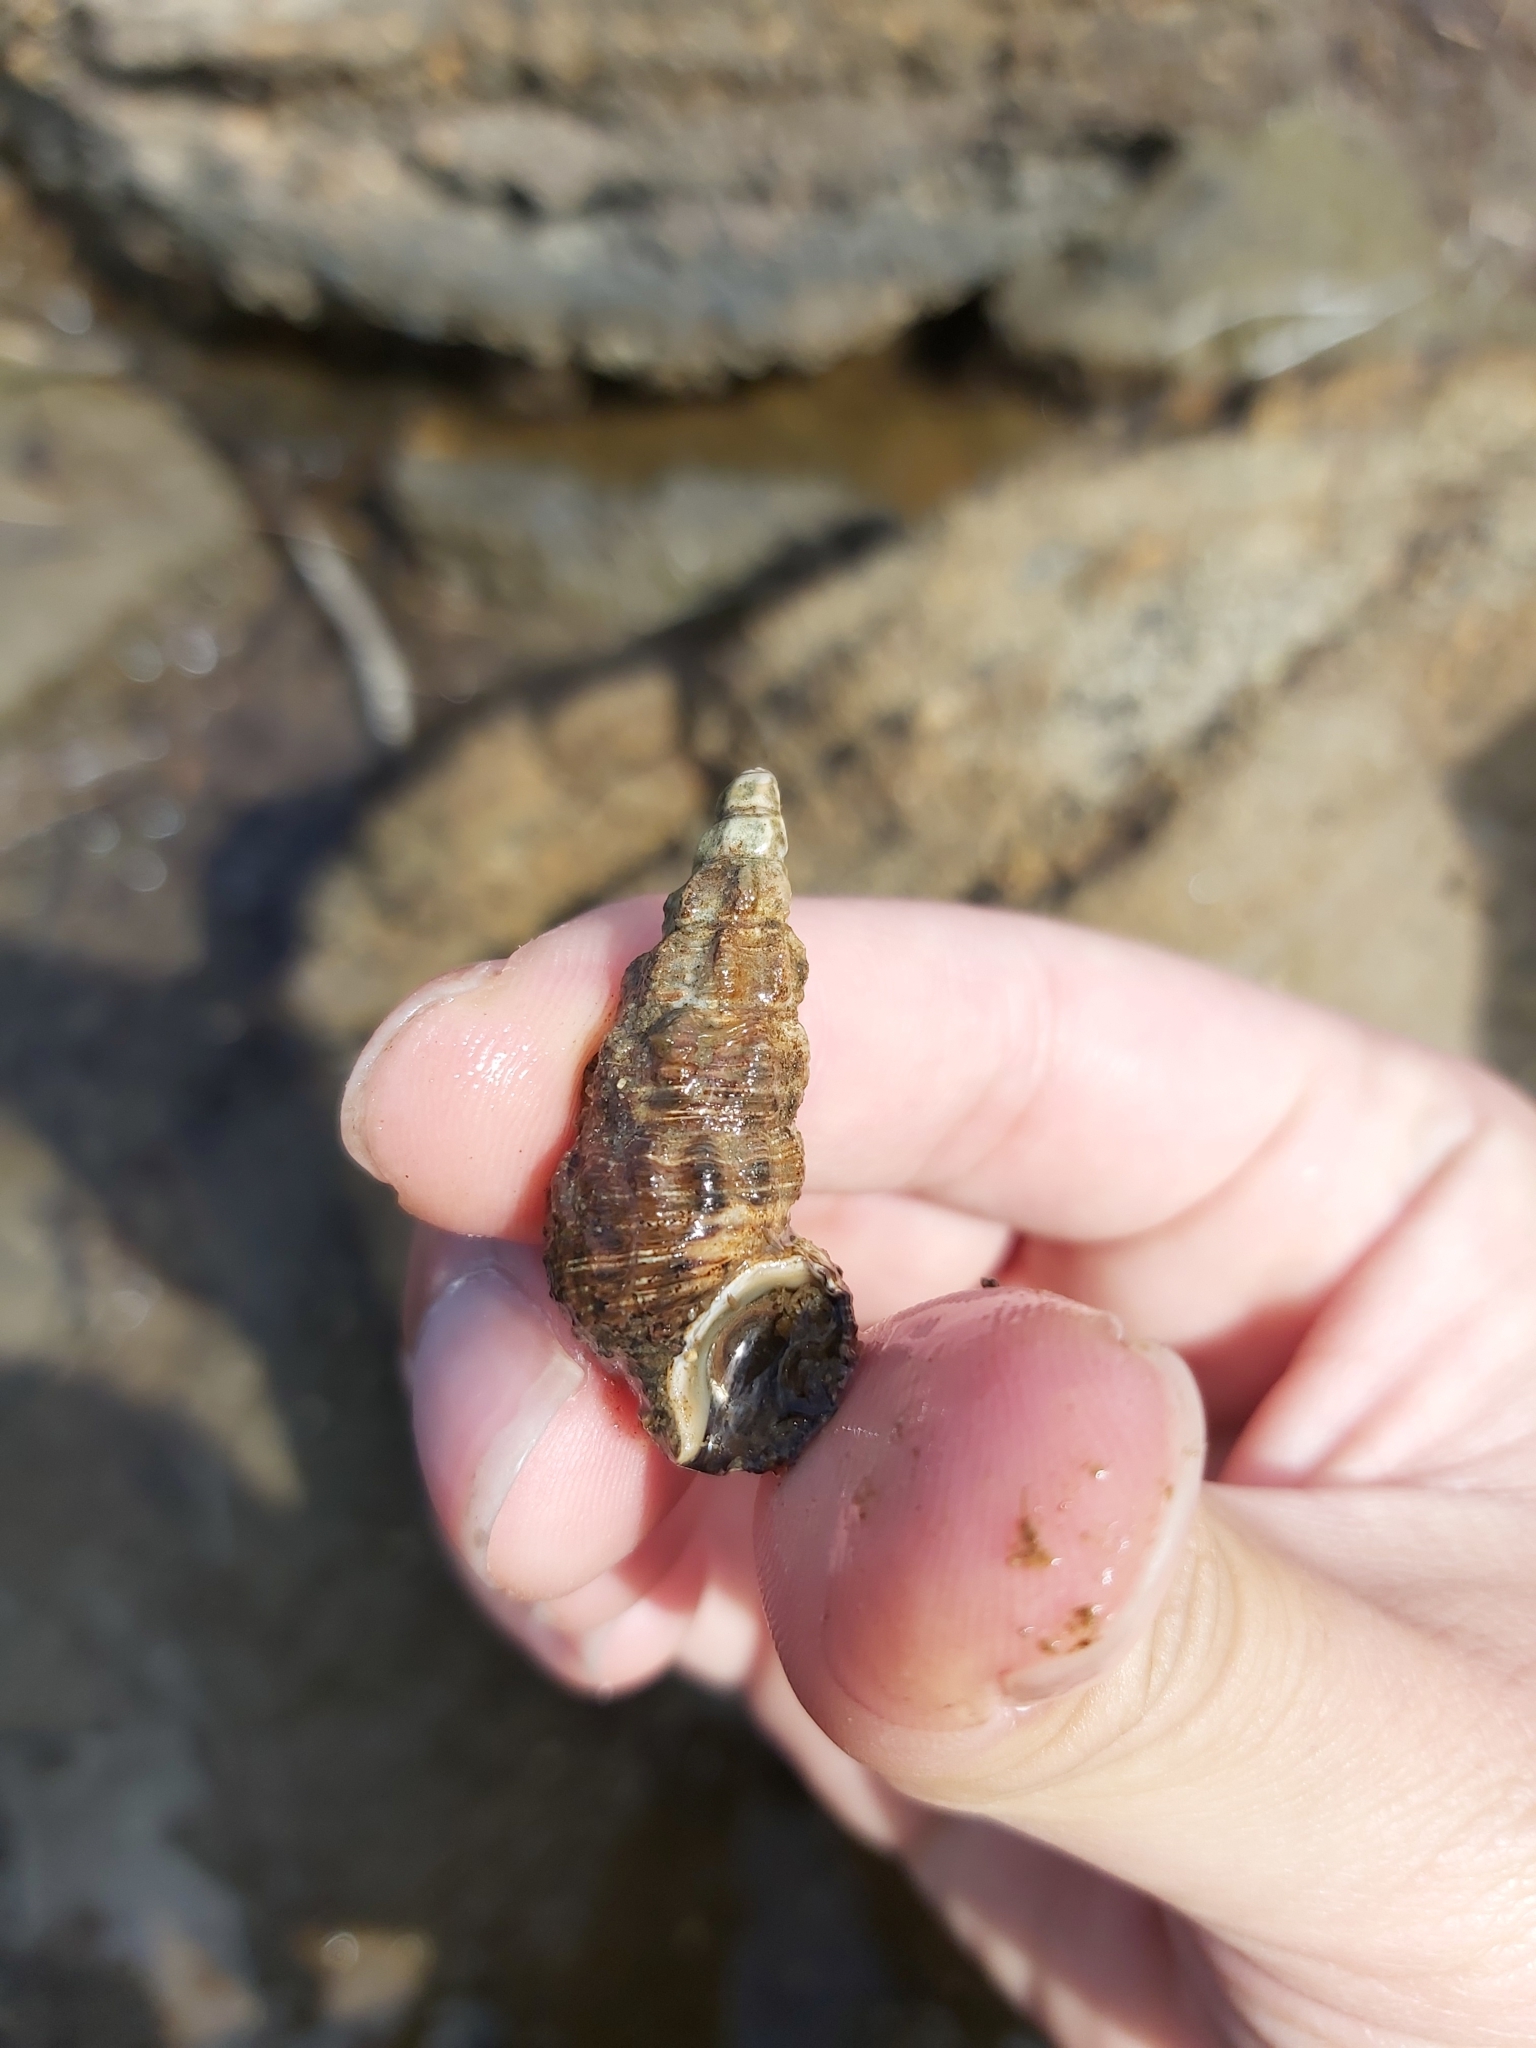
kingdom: Animalia
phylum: Mollusca
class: Gastropoda
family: Batillariidae
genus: Batillaria
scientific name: Batillaria australis
